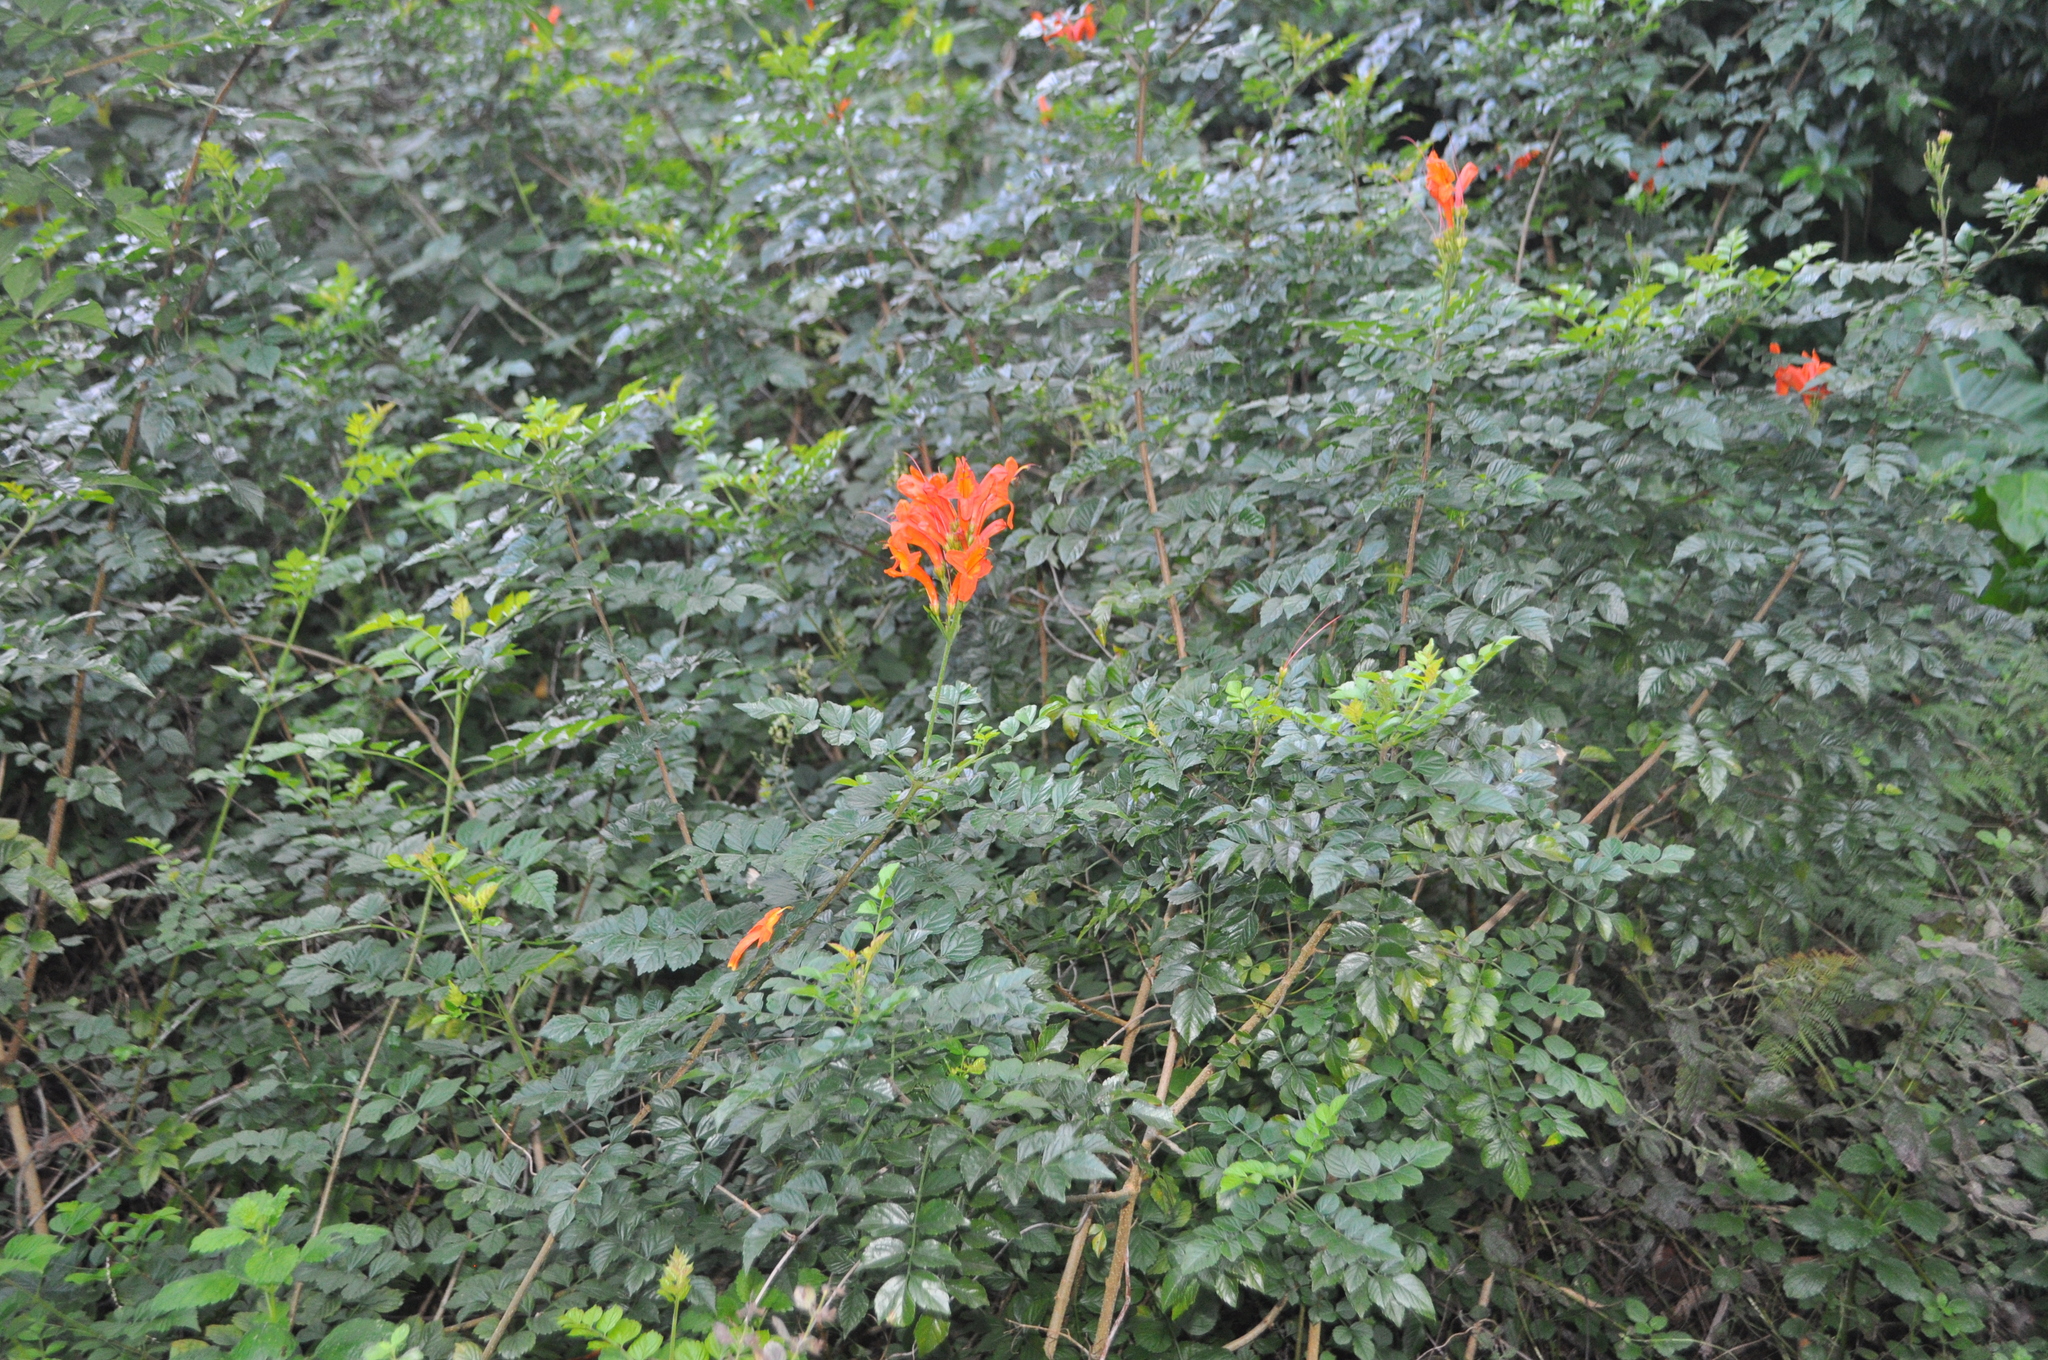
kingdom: Plantae
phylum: Tracheophyta
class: Magnoliopsida
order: Lamiales
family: Bignoniaceae
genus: Tecomaria
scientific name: Tecomaria capensis
